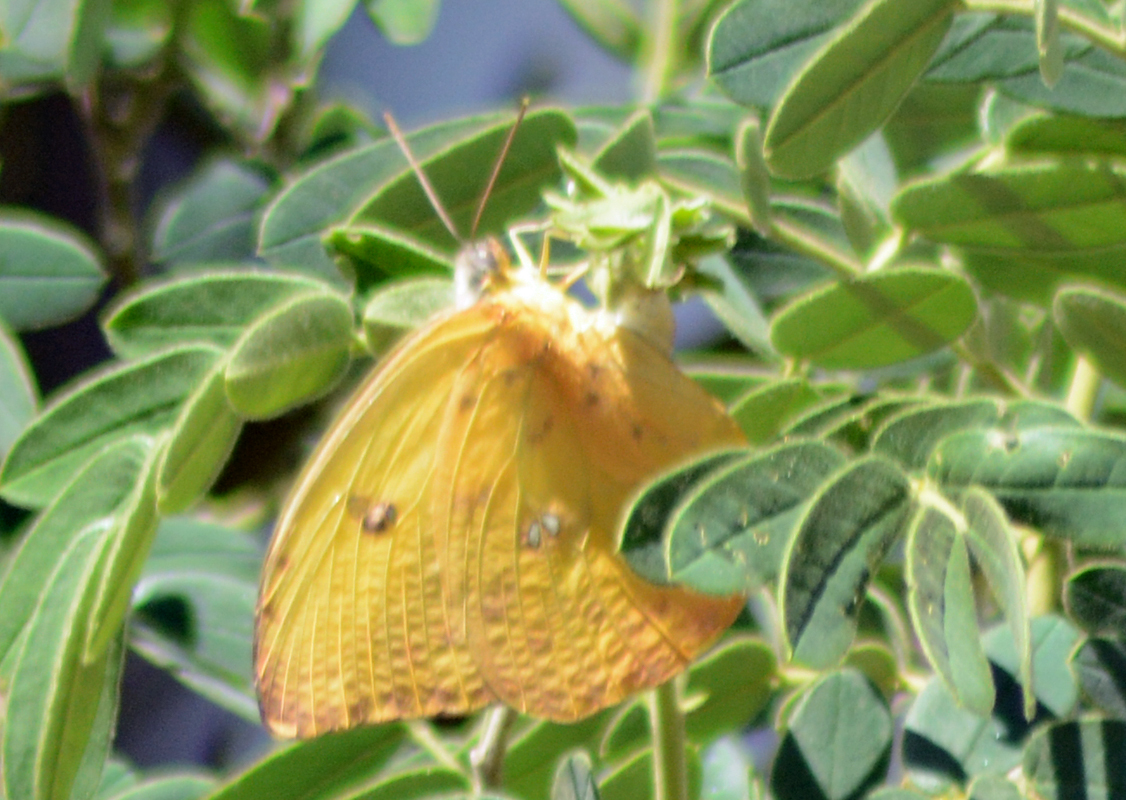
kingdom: Animalia
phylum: Arthropoda
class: Insecta
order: Lepidoptera
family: Pieridae
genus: Phoebis
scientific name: Phoebis philea
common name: Orange-barred giant sulphur
